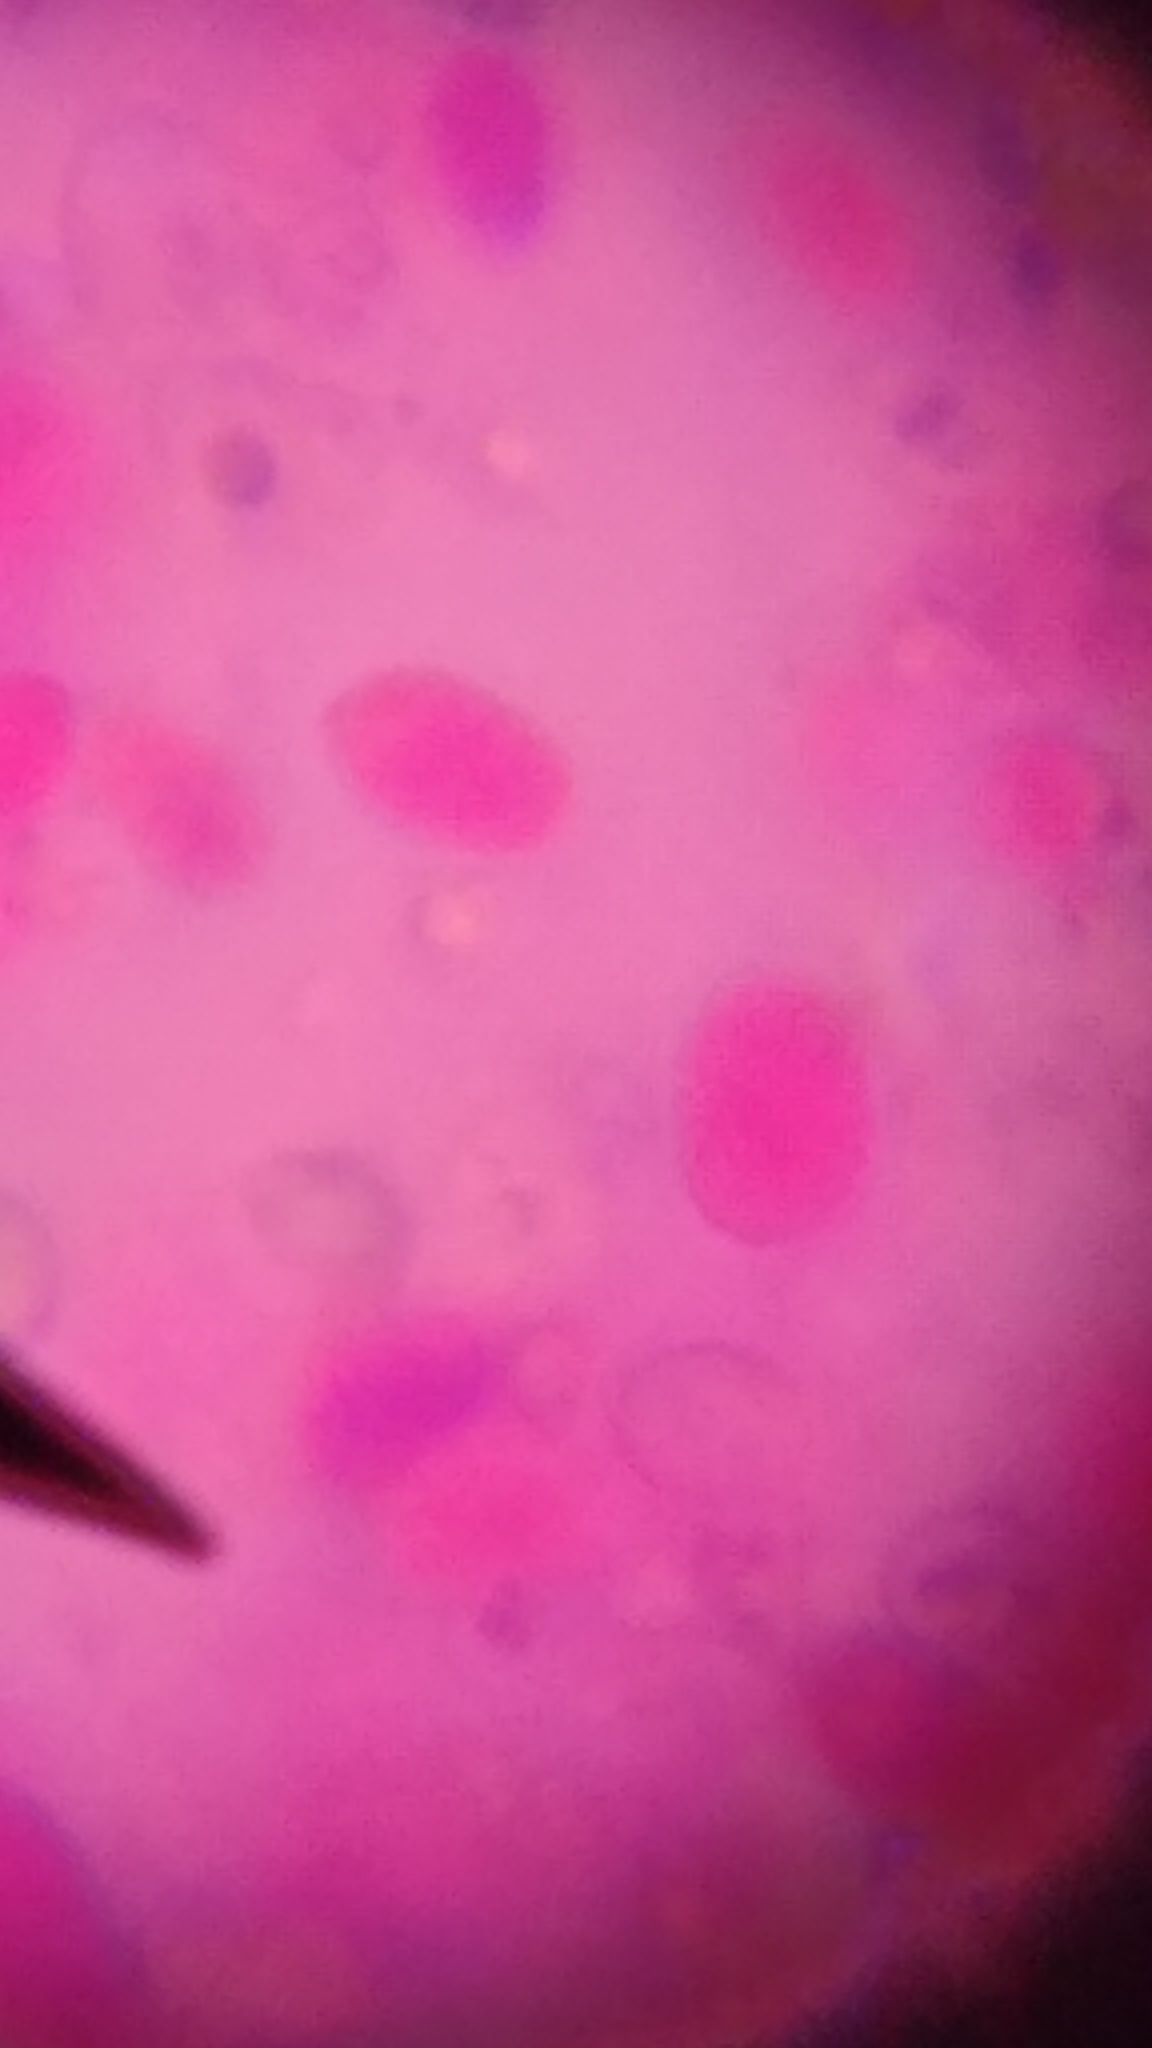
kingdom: Fungi
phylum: Basidiomycota
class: Agaricomycetes
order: Polyporales
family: Meruliaceae
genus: Mycoacia
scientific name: Mycoacia uda
